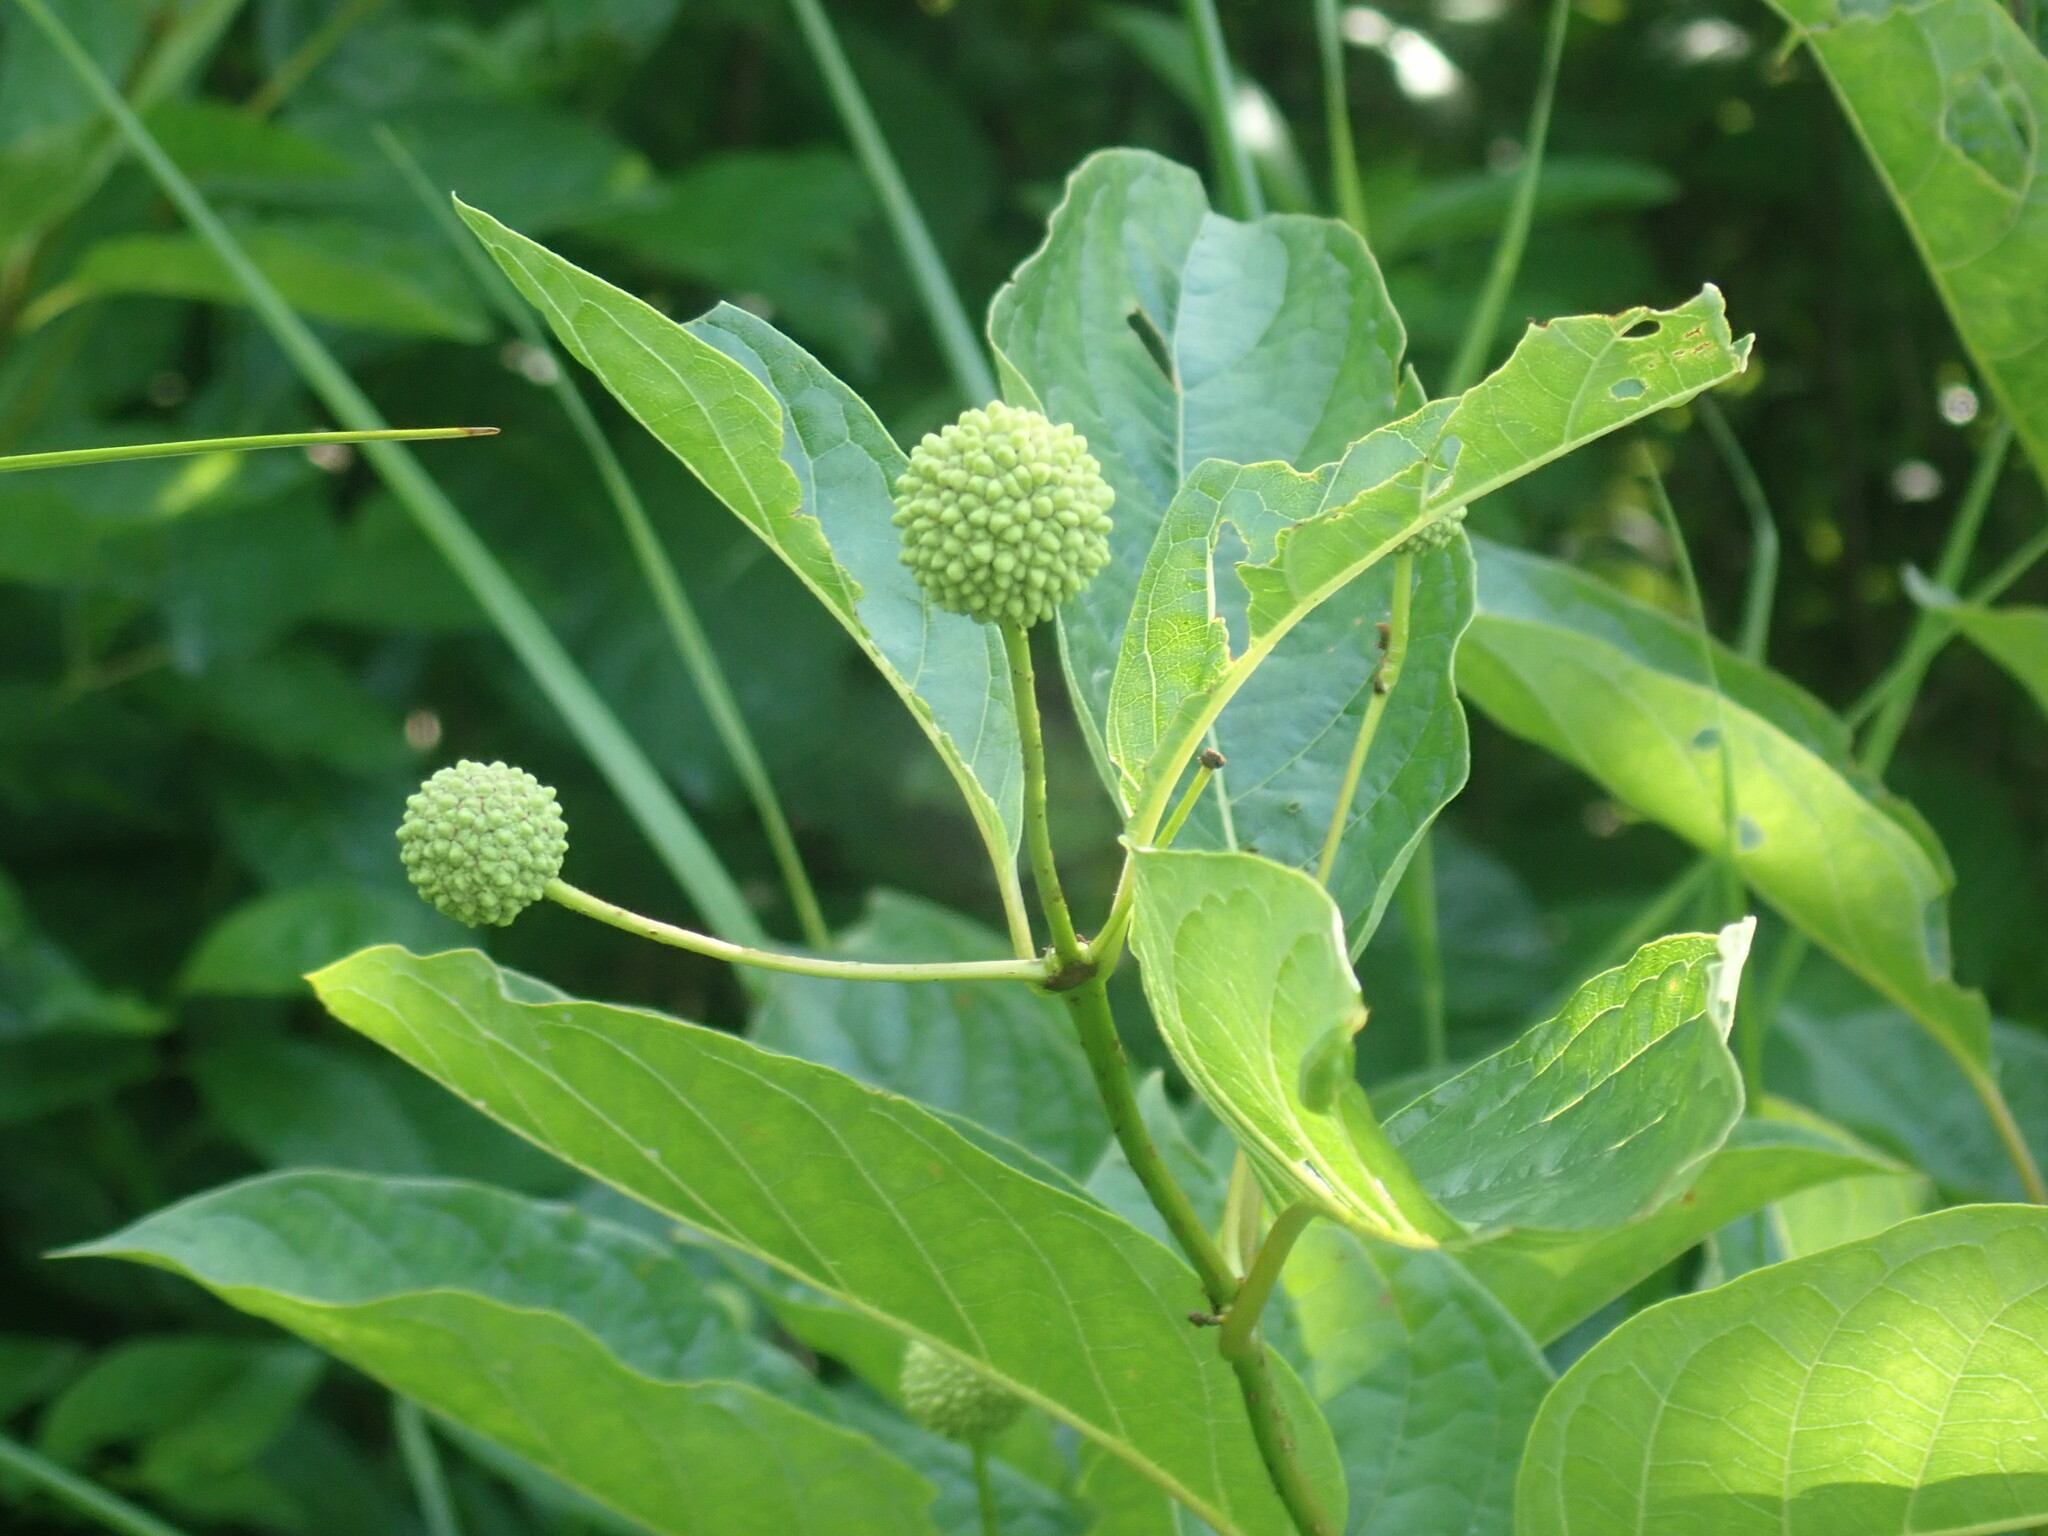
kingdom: Plantae
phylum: Tracheophyta
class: Magnoliopsida
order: Gentianales
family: Rubiaceae
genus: Cephalanthus
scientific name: Cephalanthus occidentalis
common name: Button-willow
